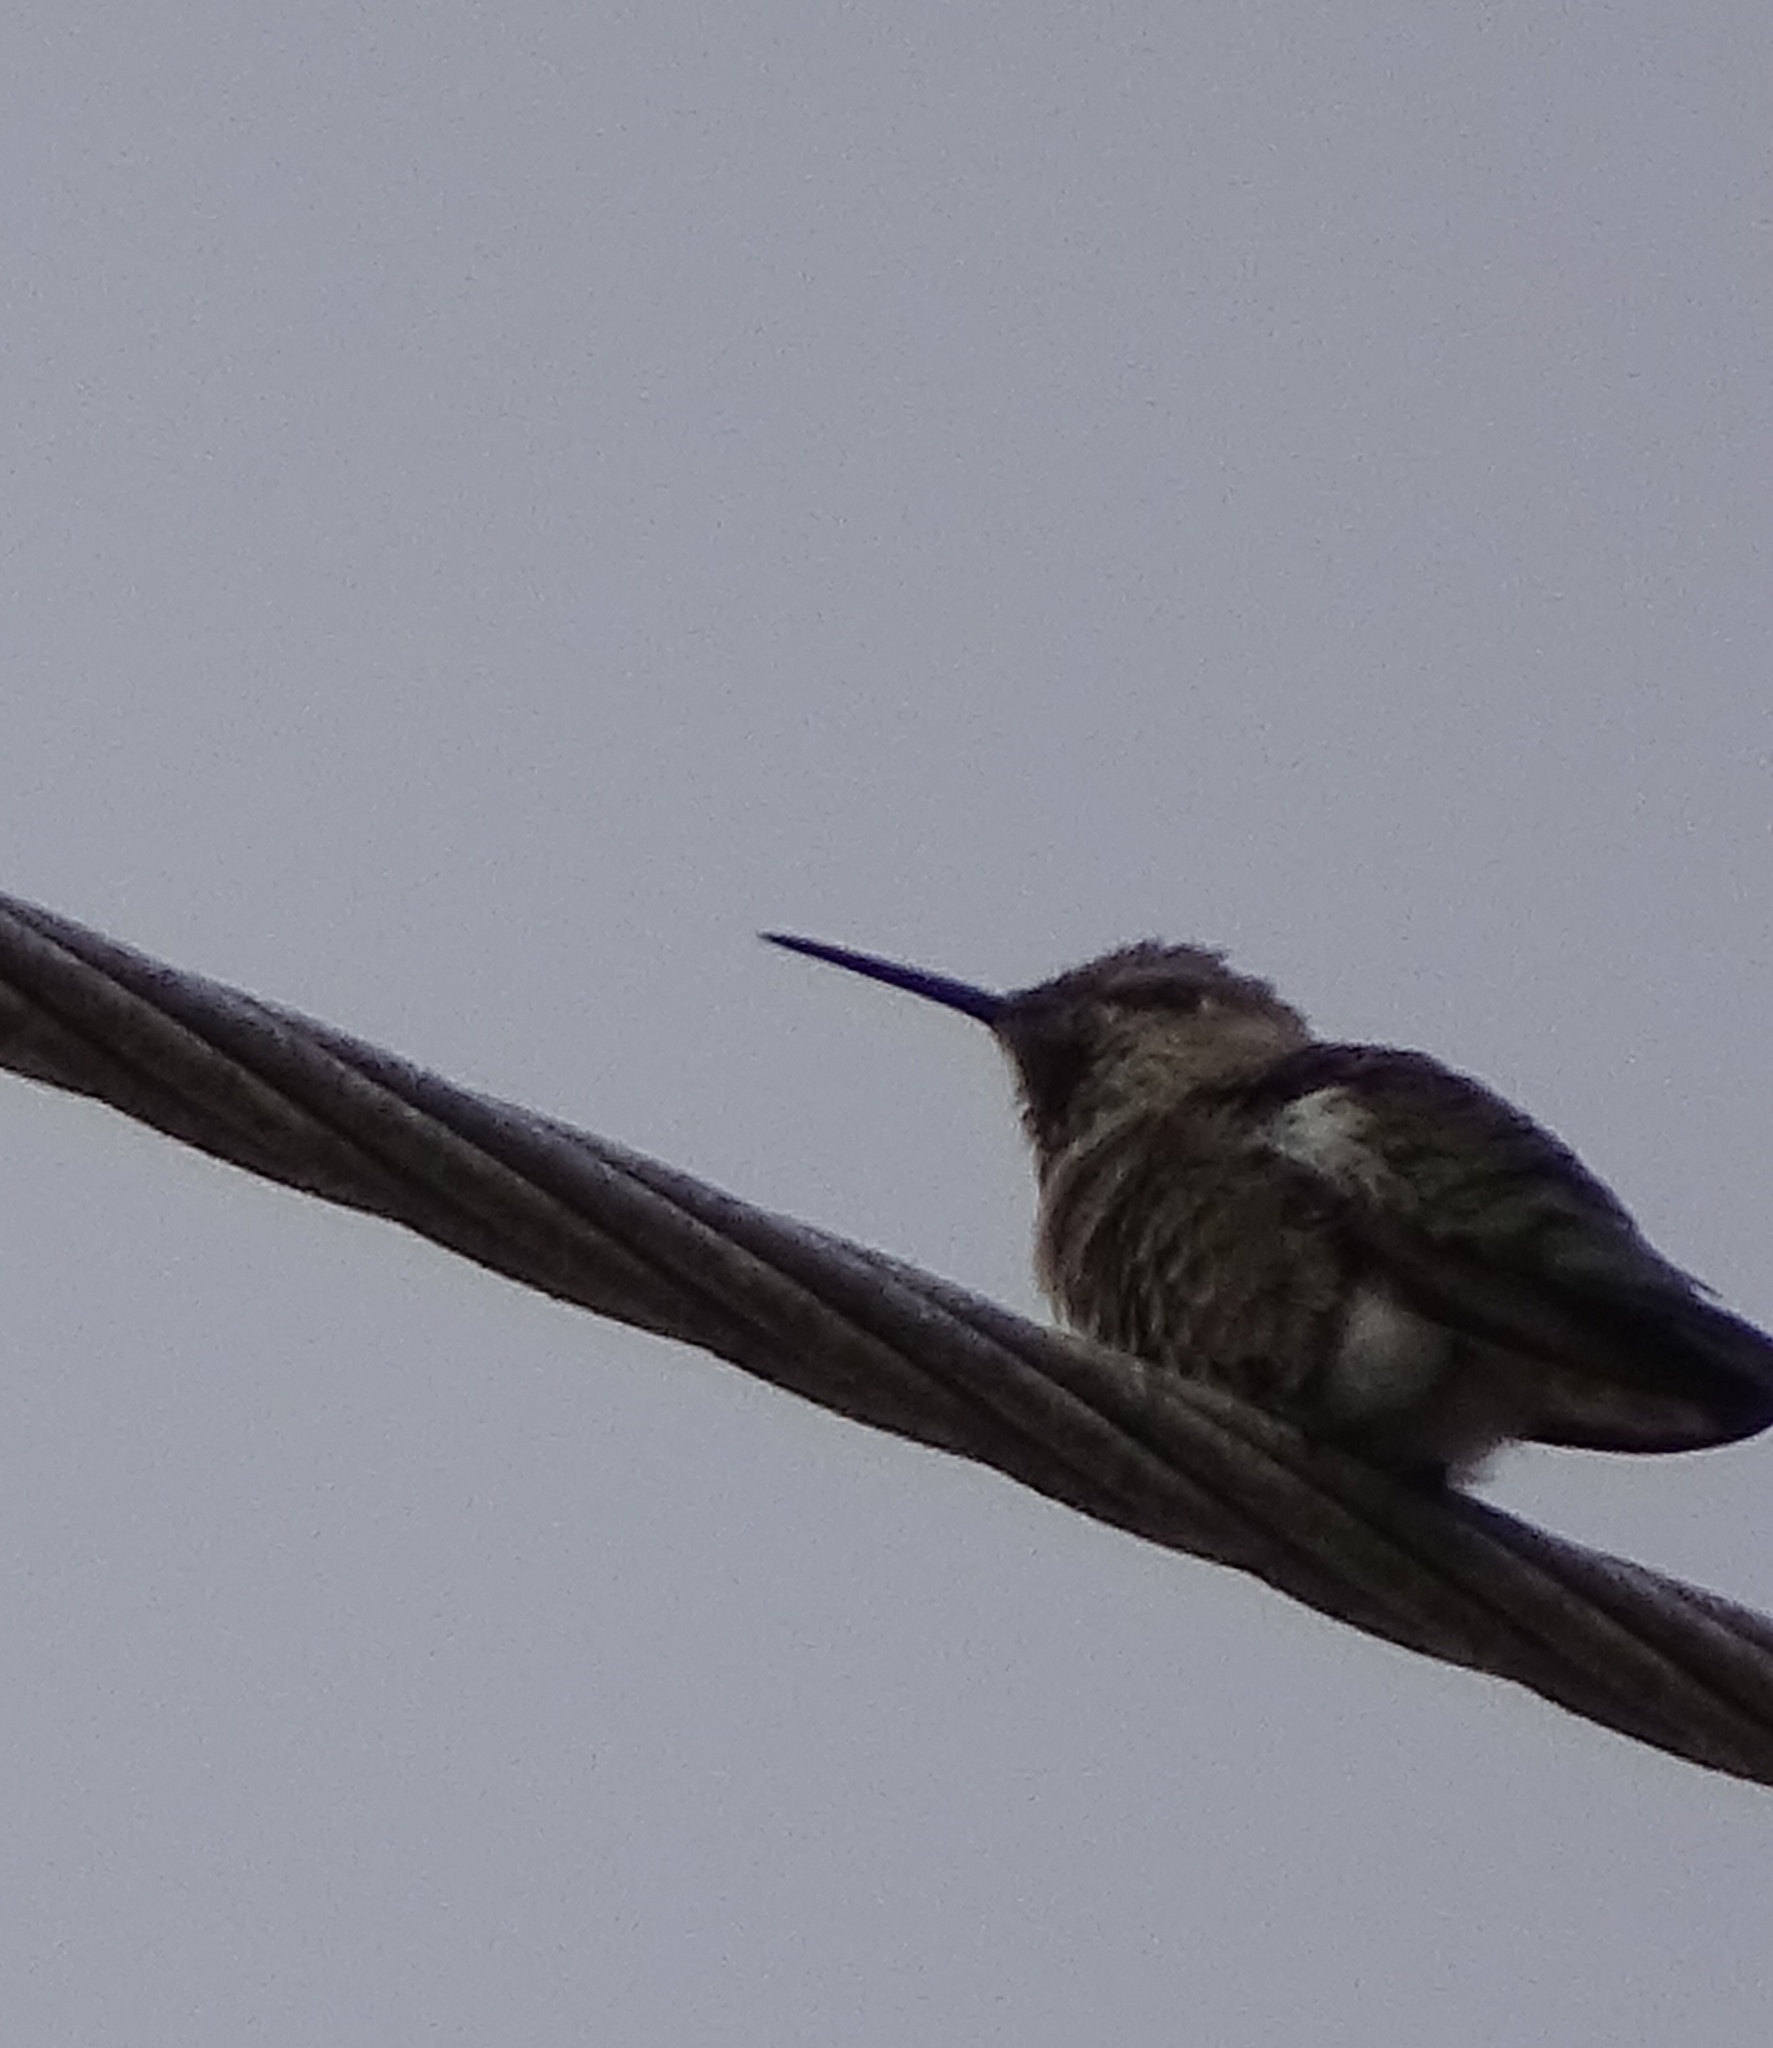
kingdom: Animalia
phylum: Chordata
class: Aves
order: Apodiformes
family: Trochilidae
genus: Calypte
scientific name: Calypte anna
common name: Anna's hummingbird
